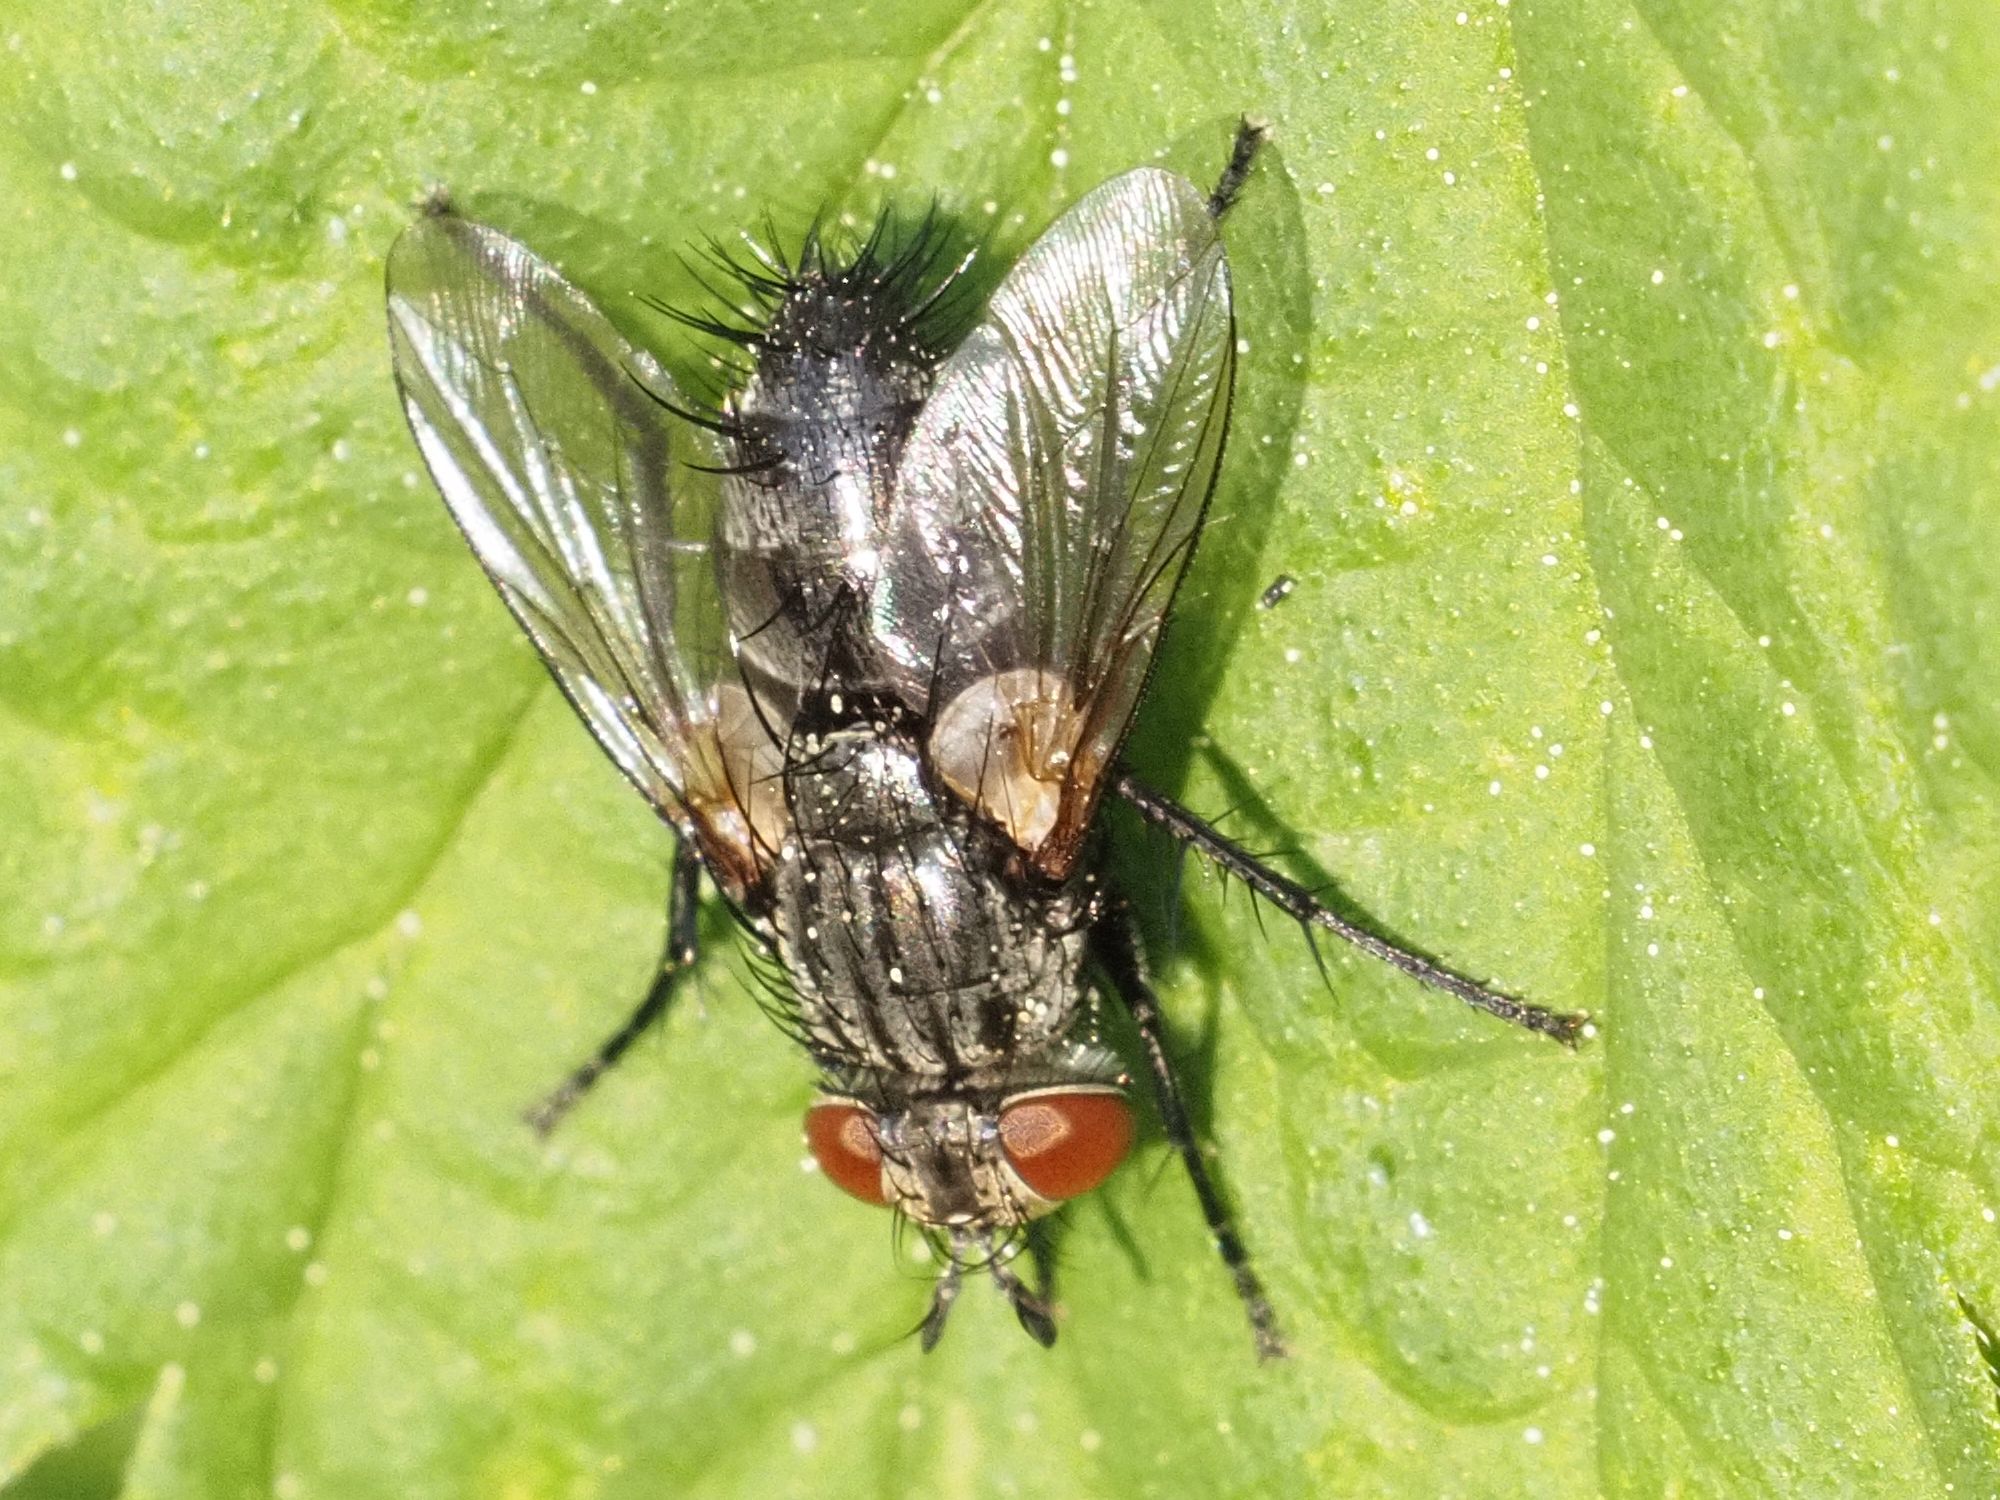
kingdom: Animalia
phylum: Arthropoda
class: Insecta
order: Diptera
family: Tachinidae
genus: Voria
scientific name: Voria ruralis
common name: Parasitic fly
